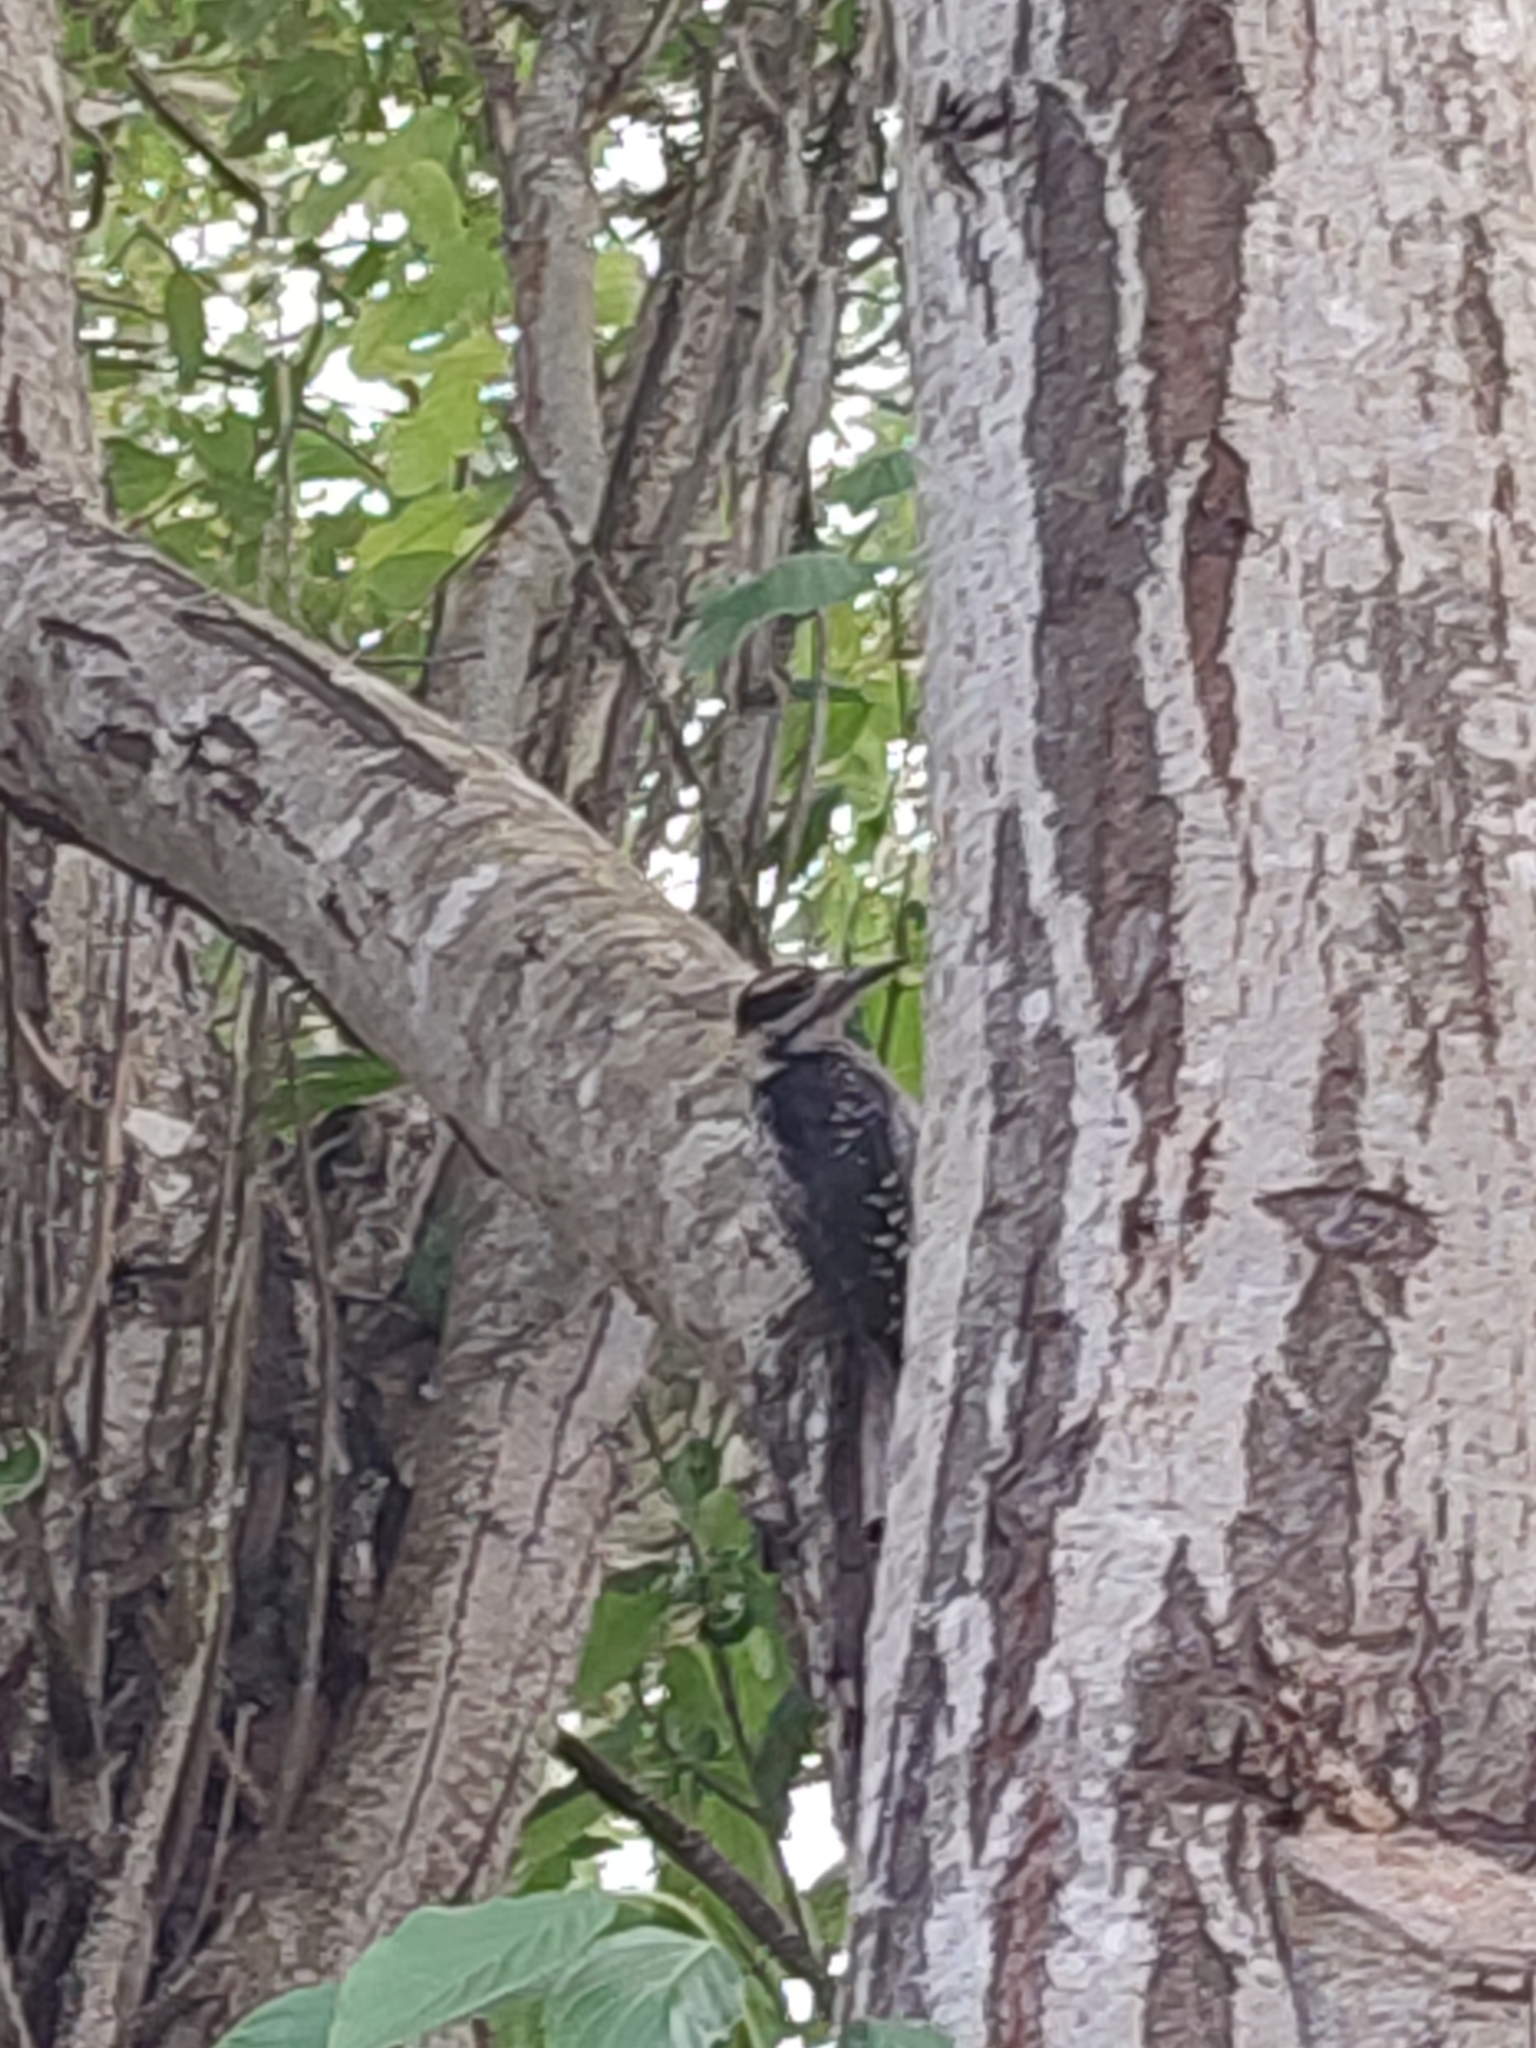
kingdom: Animalia
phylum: Chordata
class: Aves
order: Piciformes
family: Picidae
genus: Leuconotopicus
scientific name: Leuconotopicus villosus
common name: Hairy woodpecker
